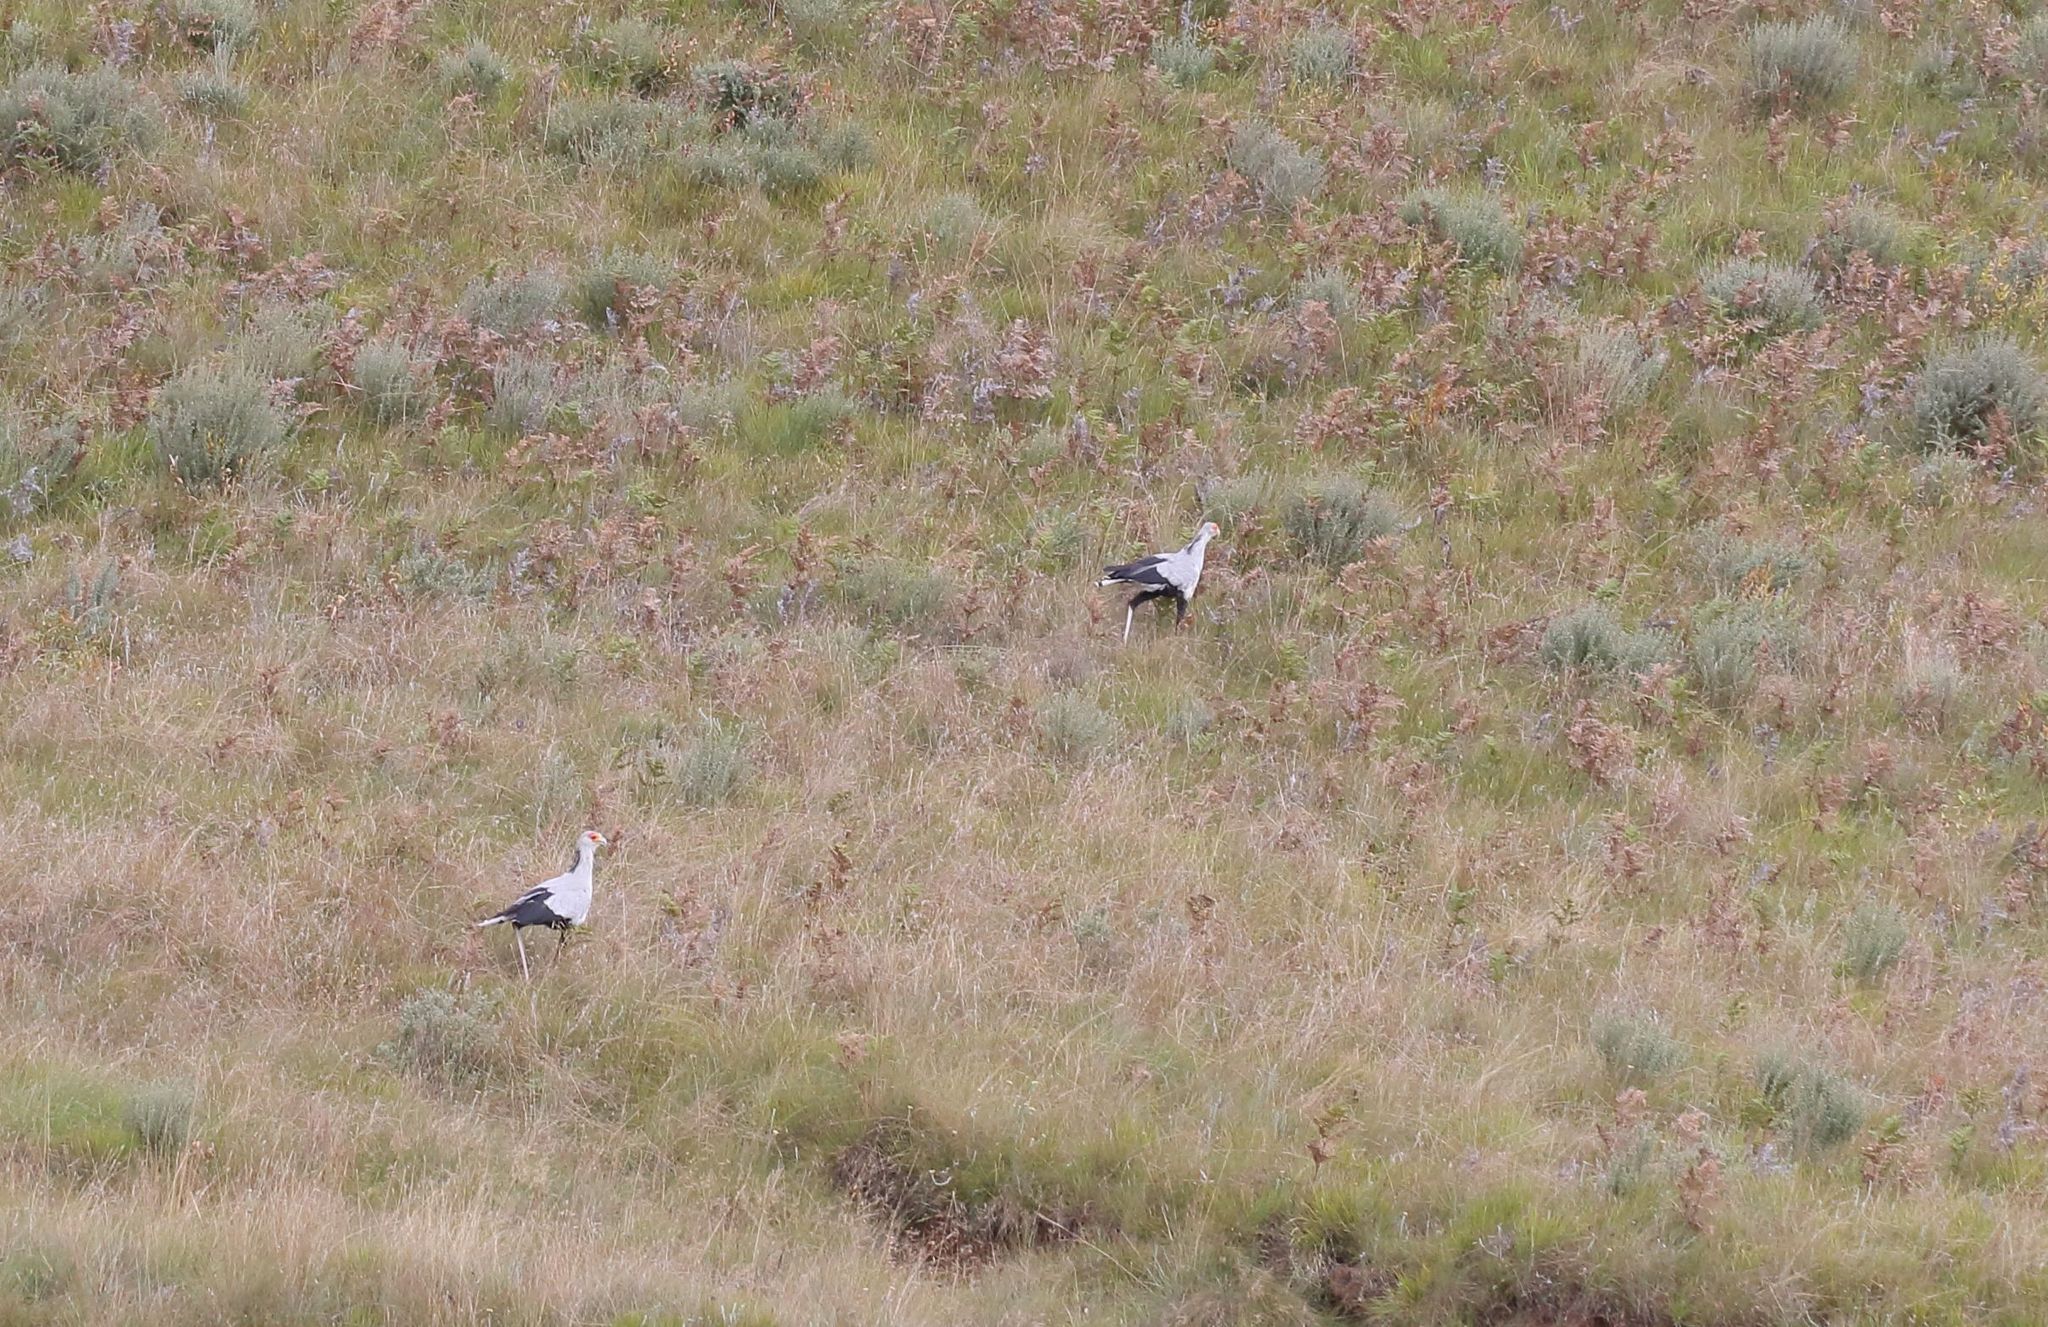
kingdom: Animalia
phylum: Chordata
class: Aves
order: Accipitriformes
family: Sagittariidae
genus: Sagittarius
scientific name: Sagittarius serpentarius
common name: Secretarybird
